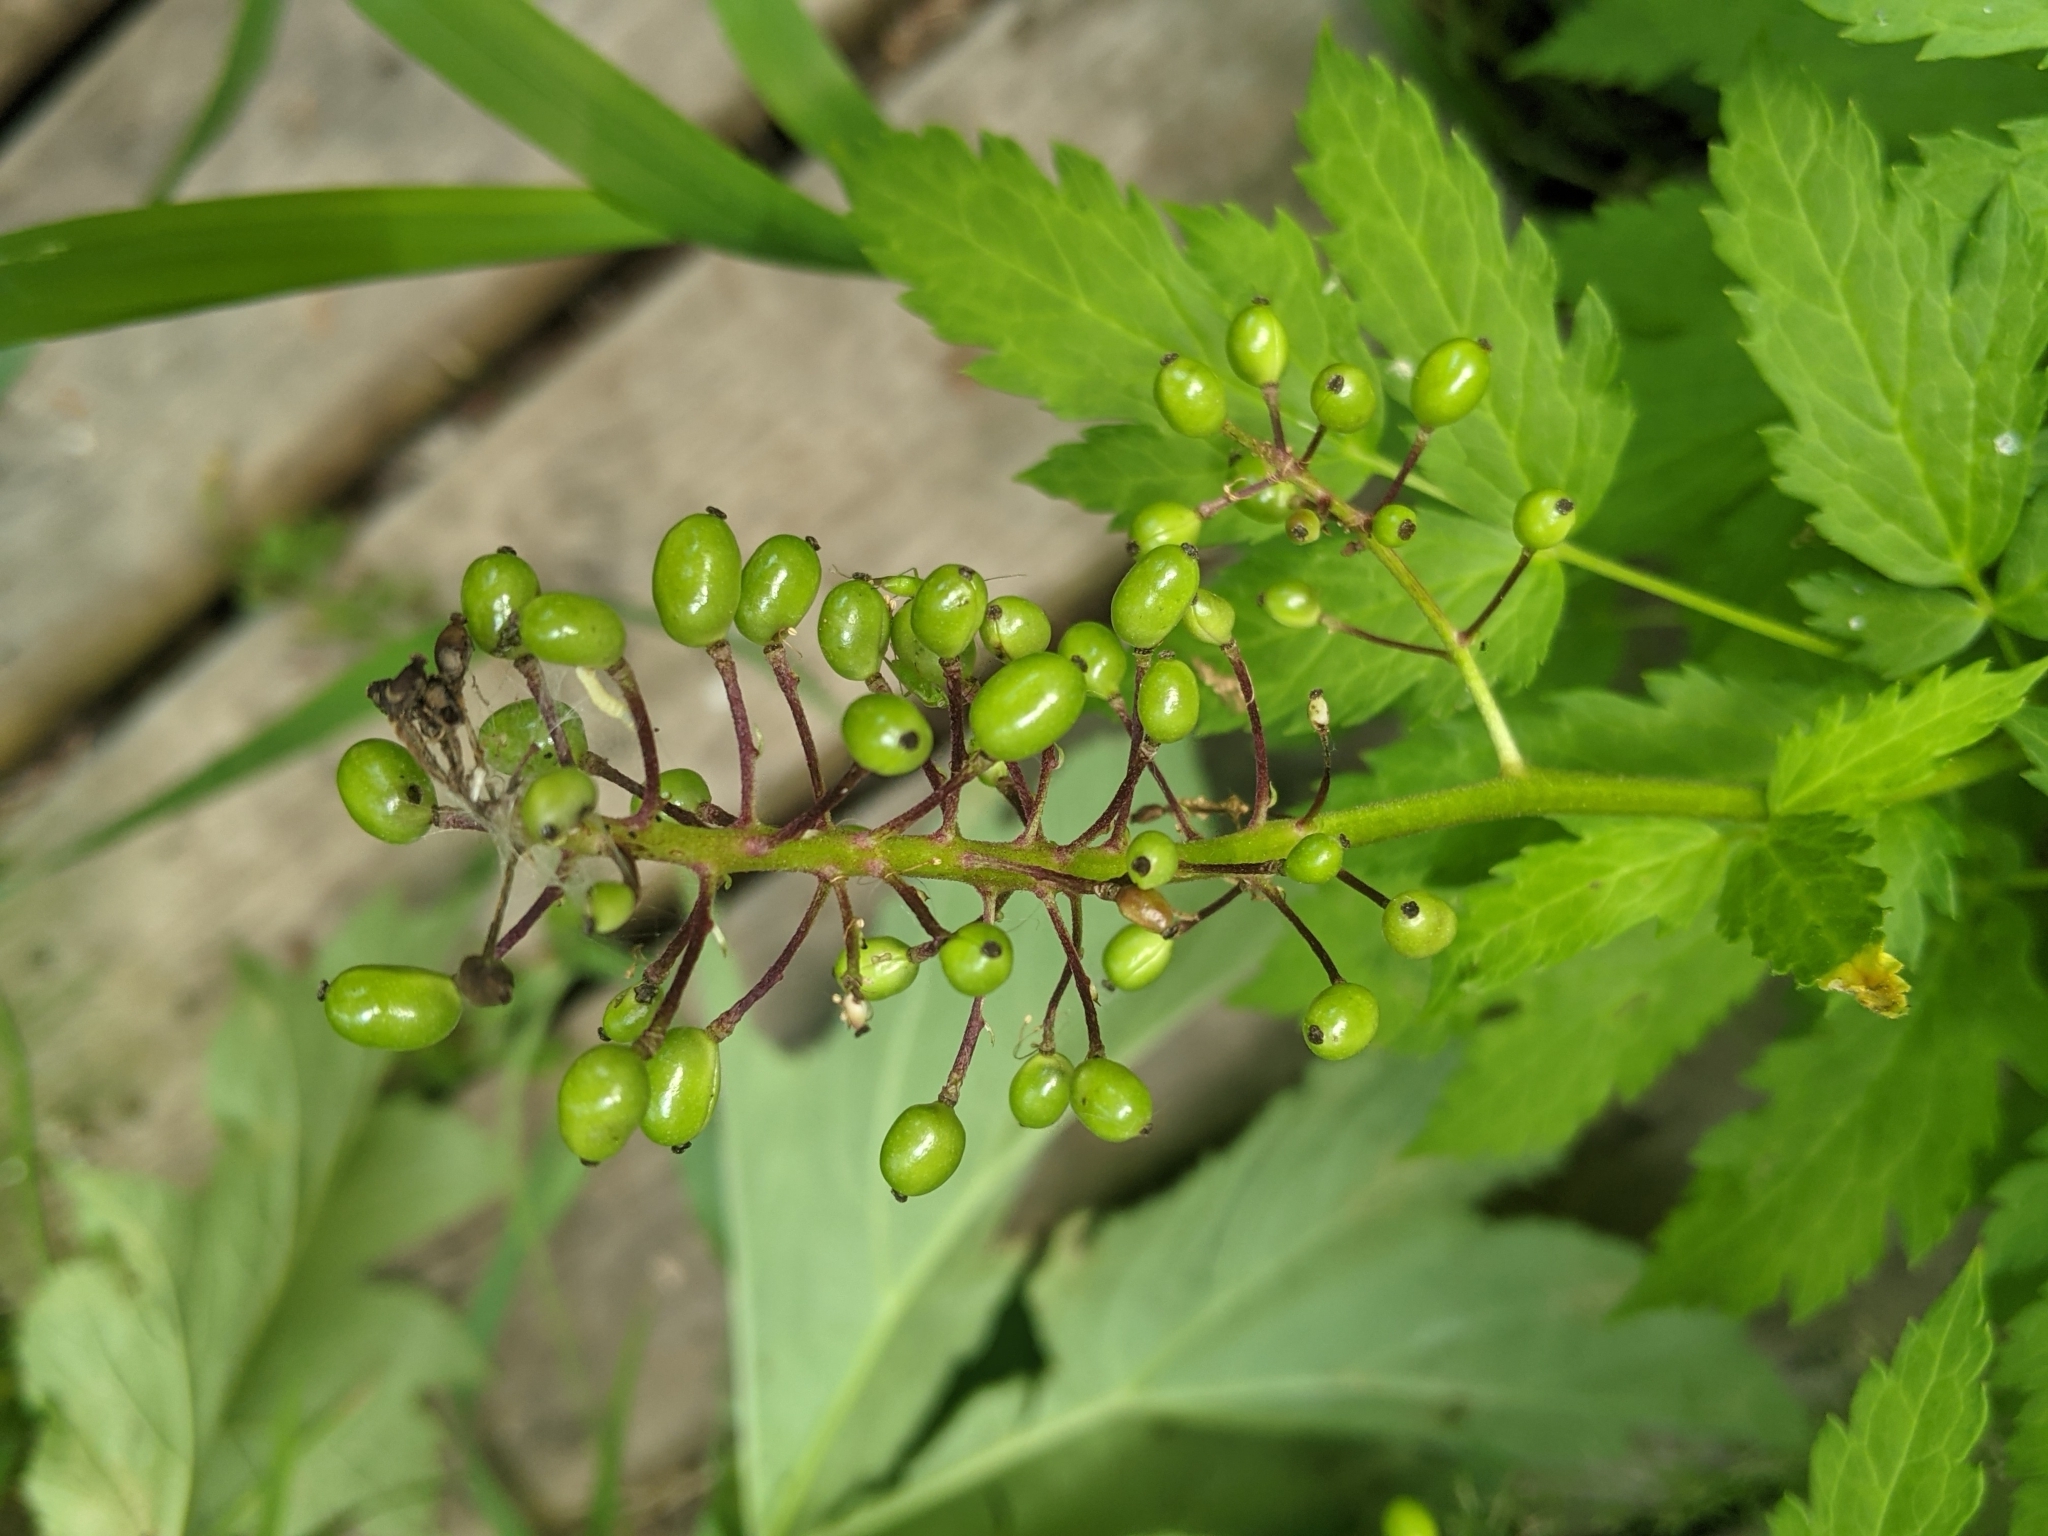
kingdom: Plantae
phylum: Tracheophyta
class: Magnoliopsida
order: Ranunculales
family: Ranunculaceae
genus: Actaea
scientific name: Actaea rubra
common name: Red baneberry
